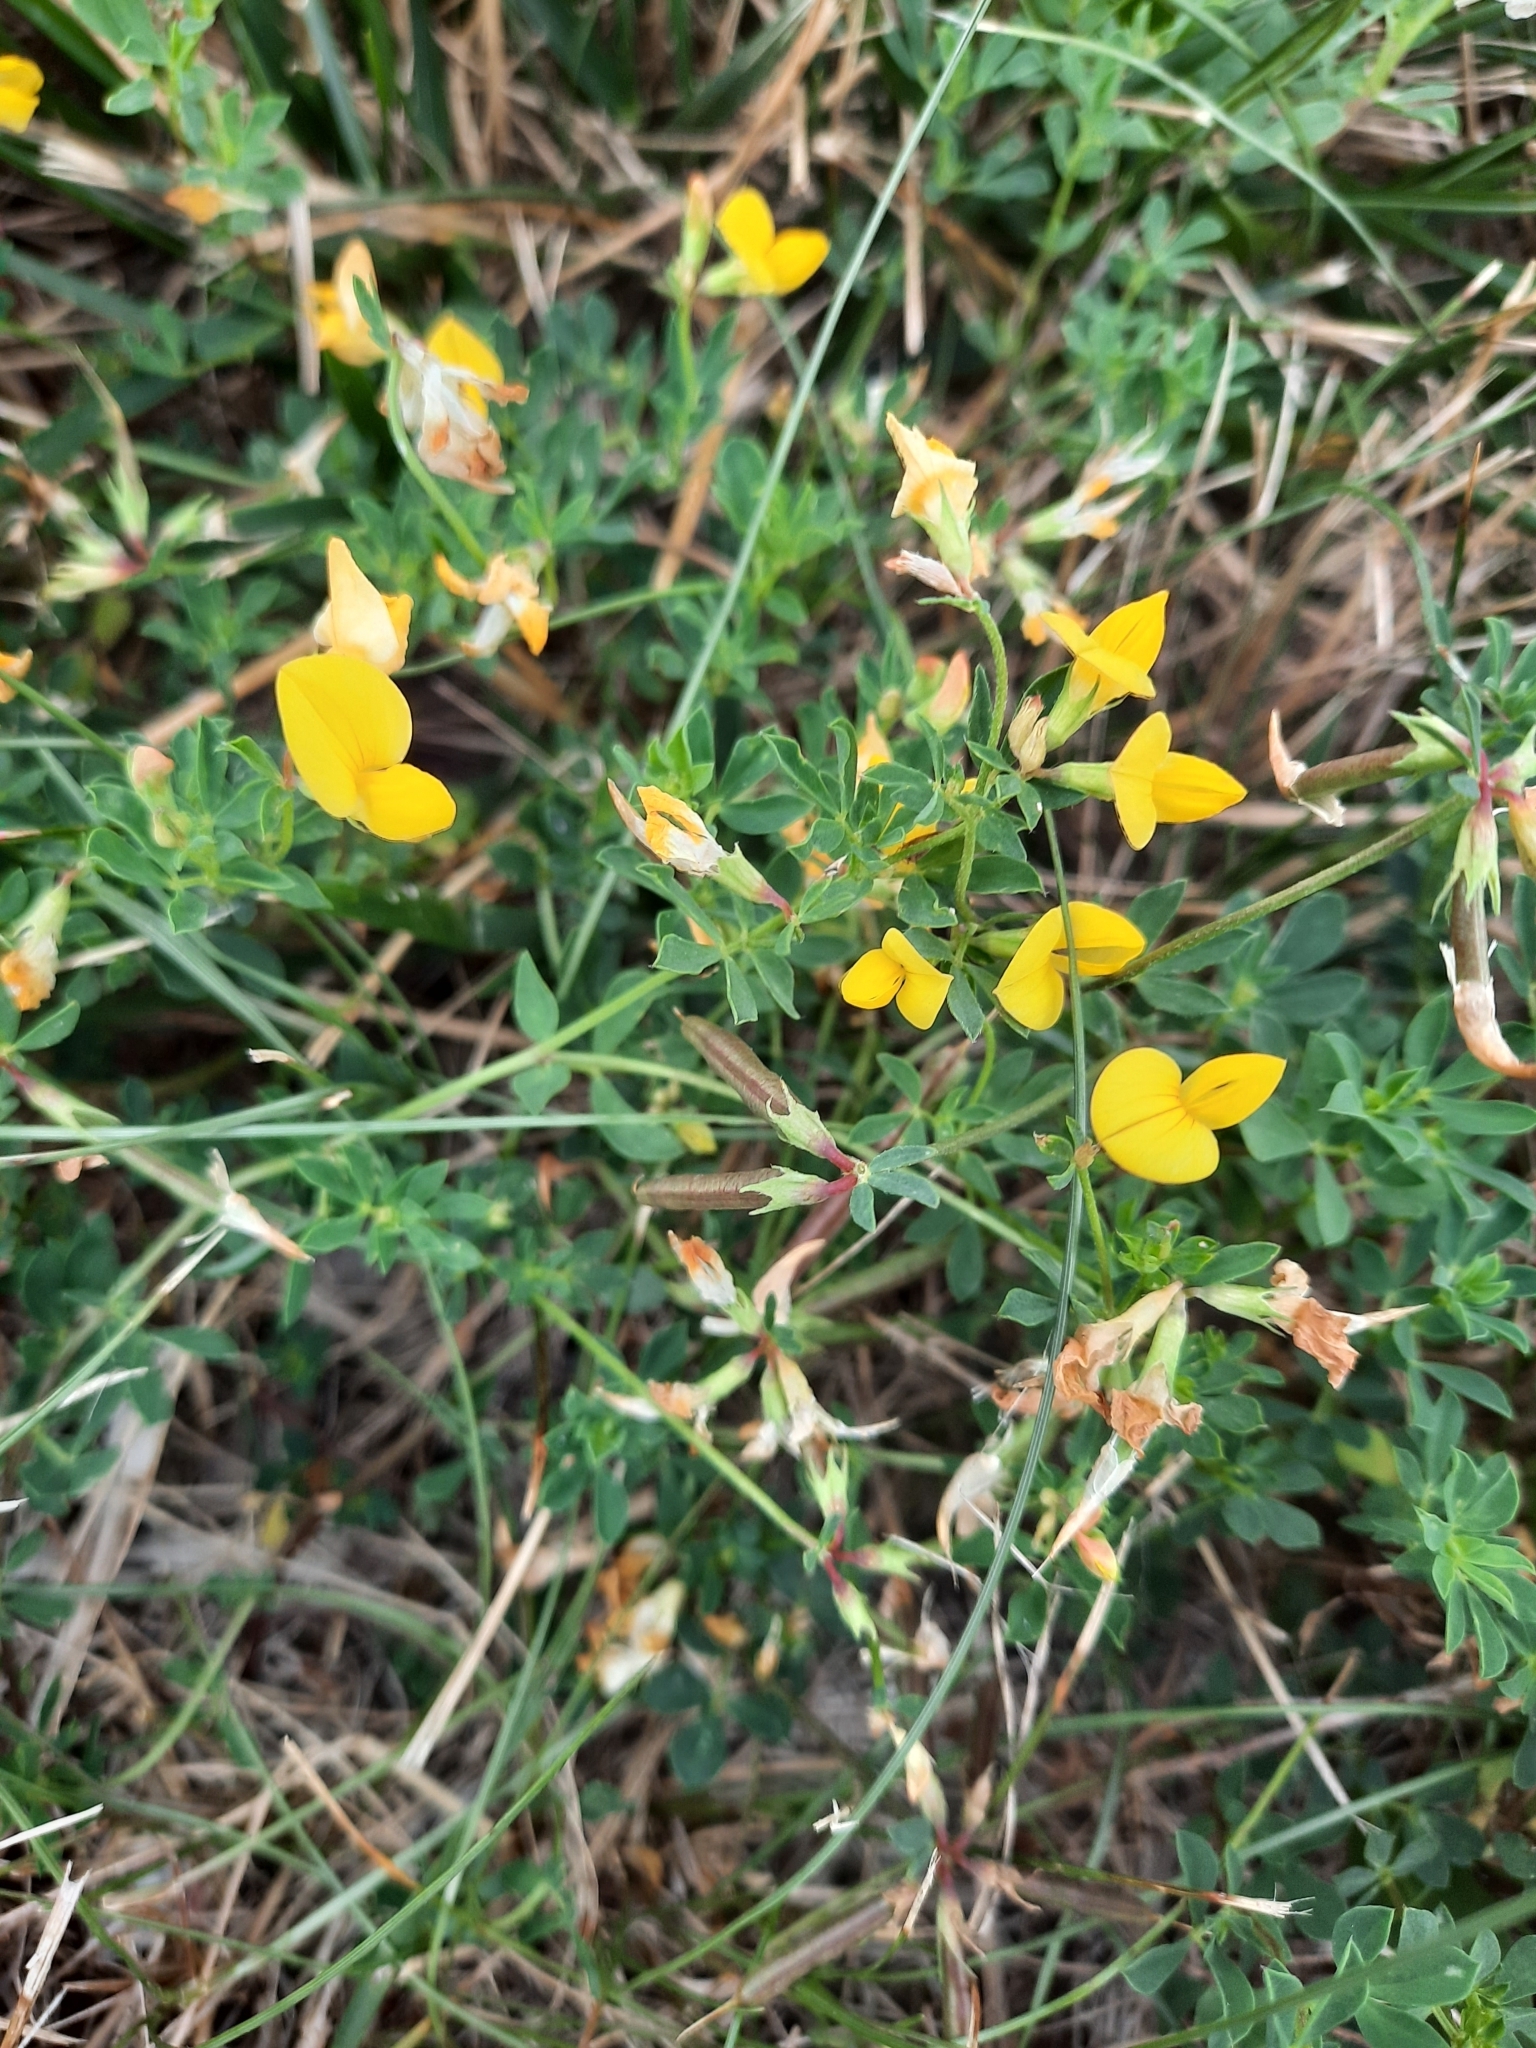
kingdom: Plantae
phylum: Tracheophyta
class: Magnoliopsida
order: Fabales
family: Fabaceae
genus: Lotus
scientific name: Lotus corniculatus
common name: Common bird's-foot-trefoil
